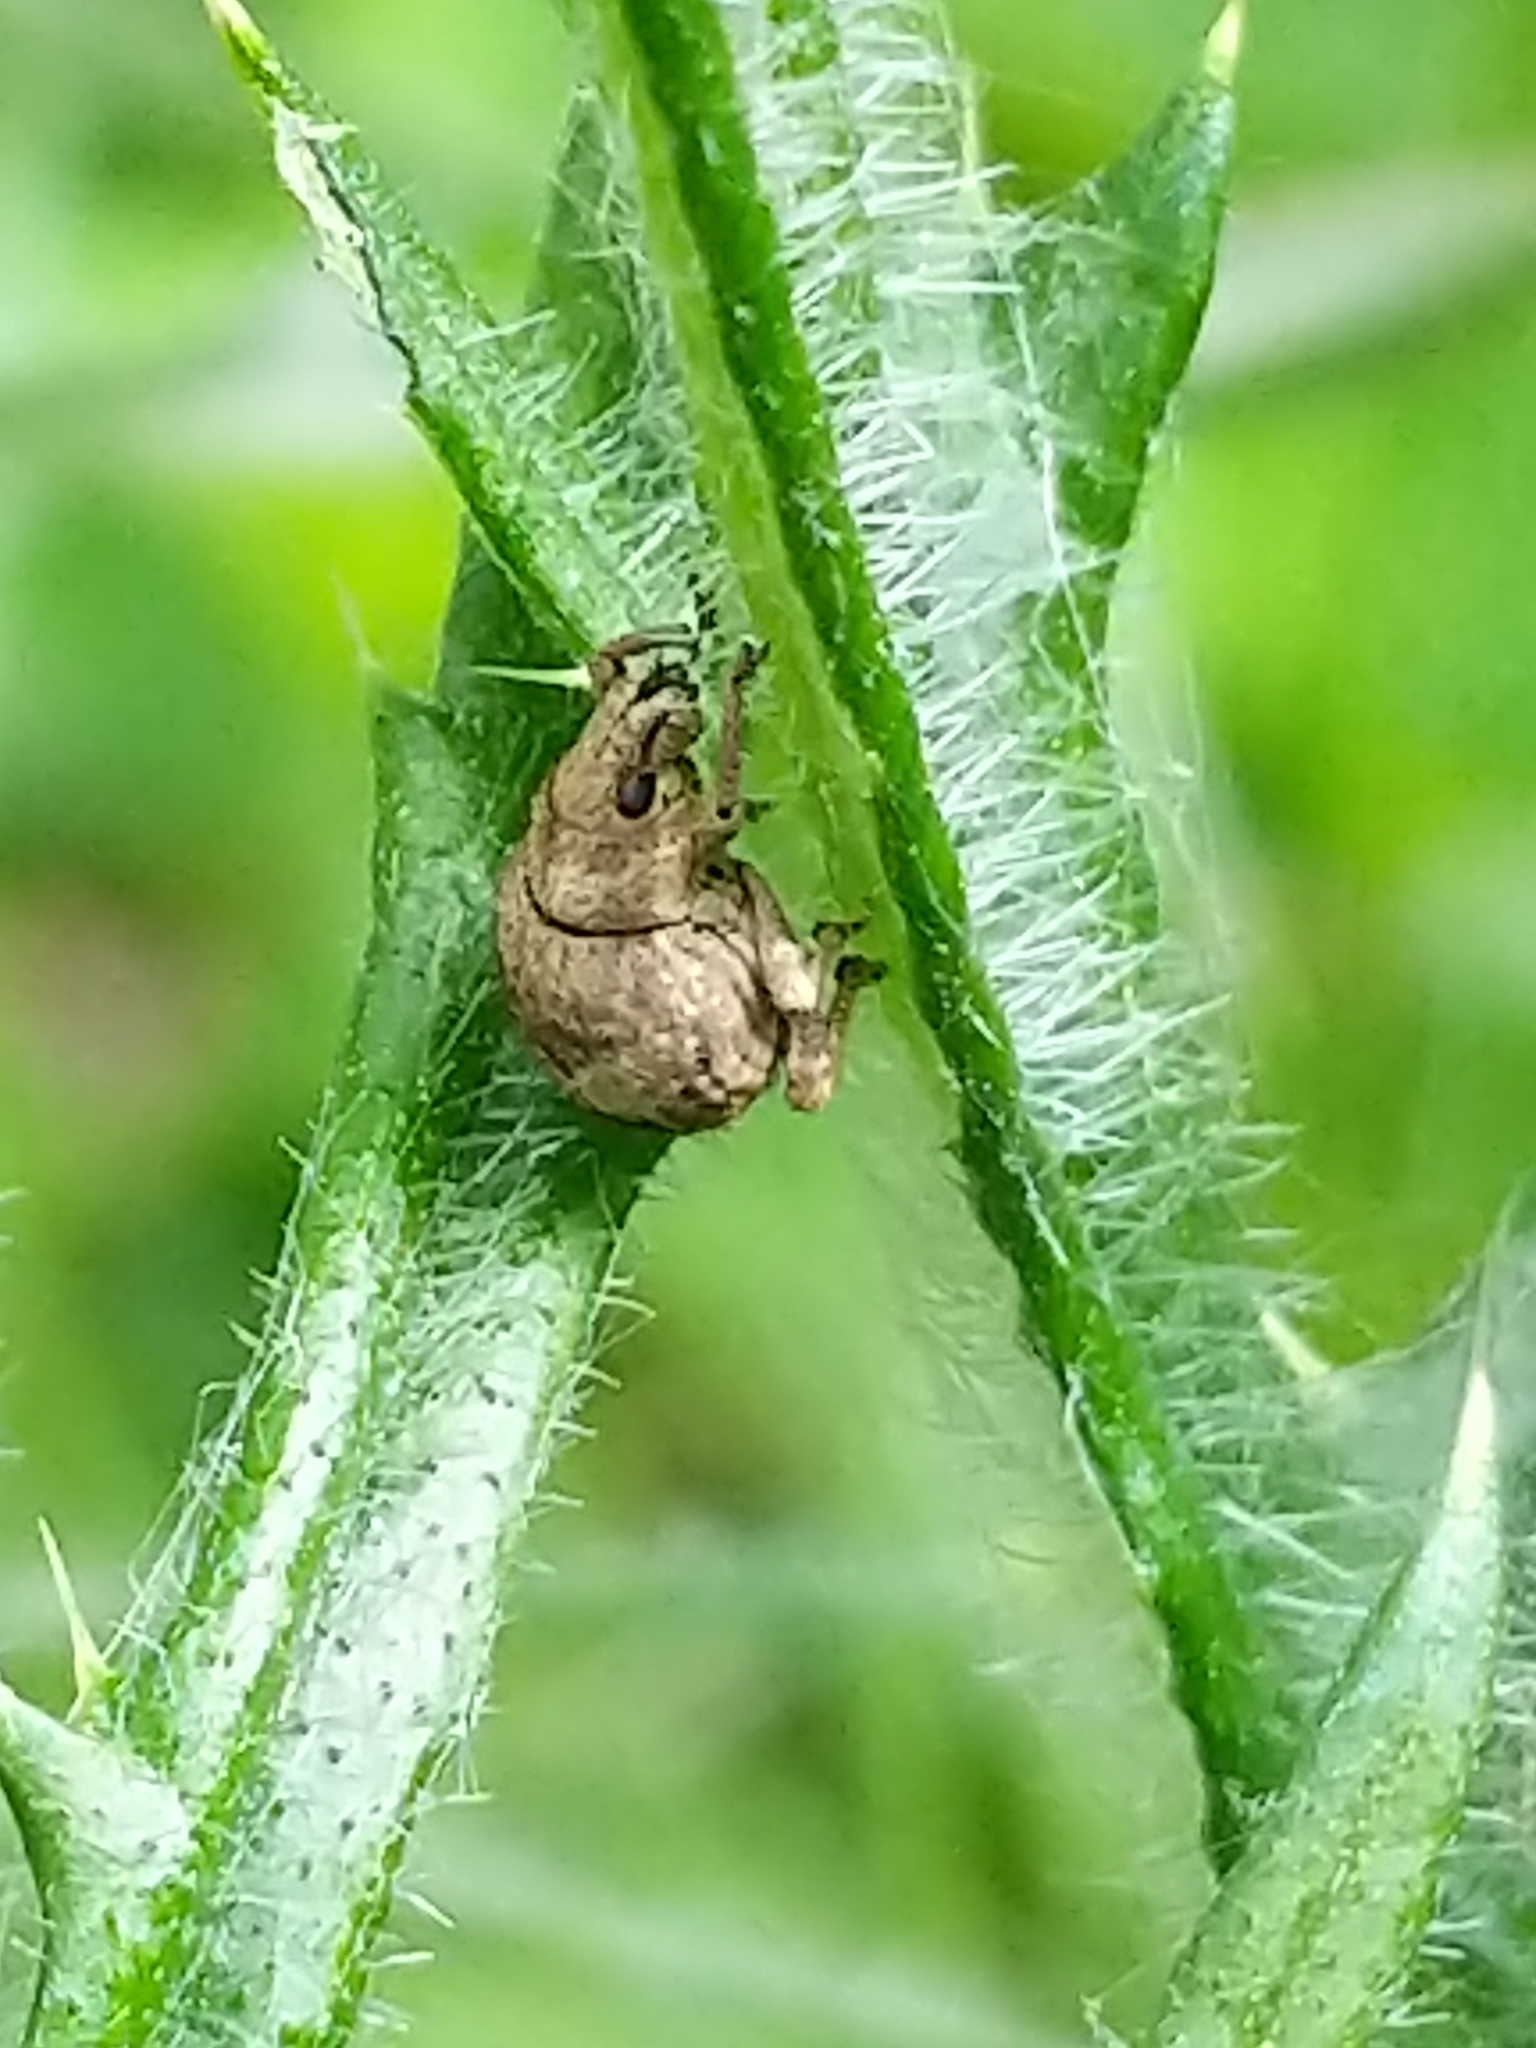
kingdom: Animalia
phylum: Arthropoda
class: Insecta
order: Coleoptera
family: Curculionidae
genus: Pseudocneorhinus
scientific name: Pseudocneorhinus bifasciatus
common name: Two-banded japanese weevil
